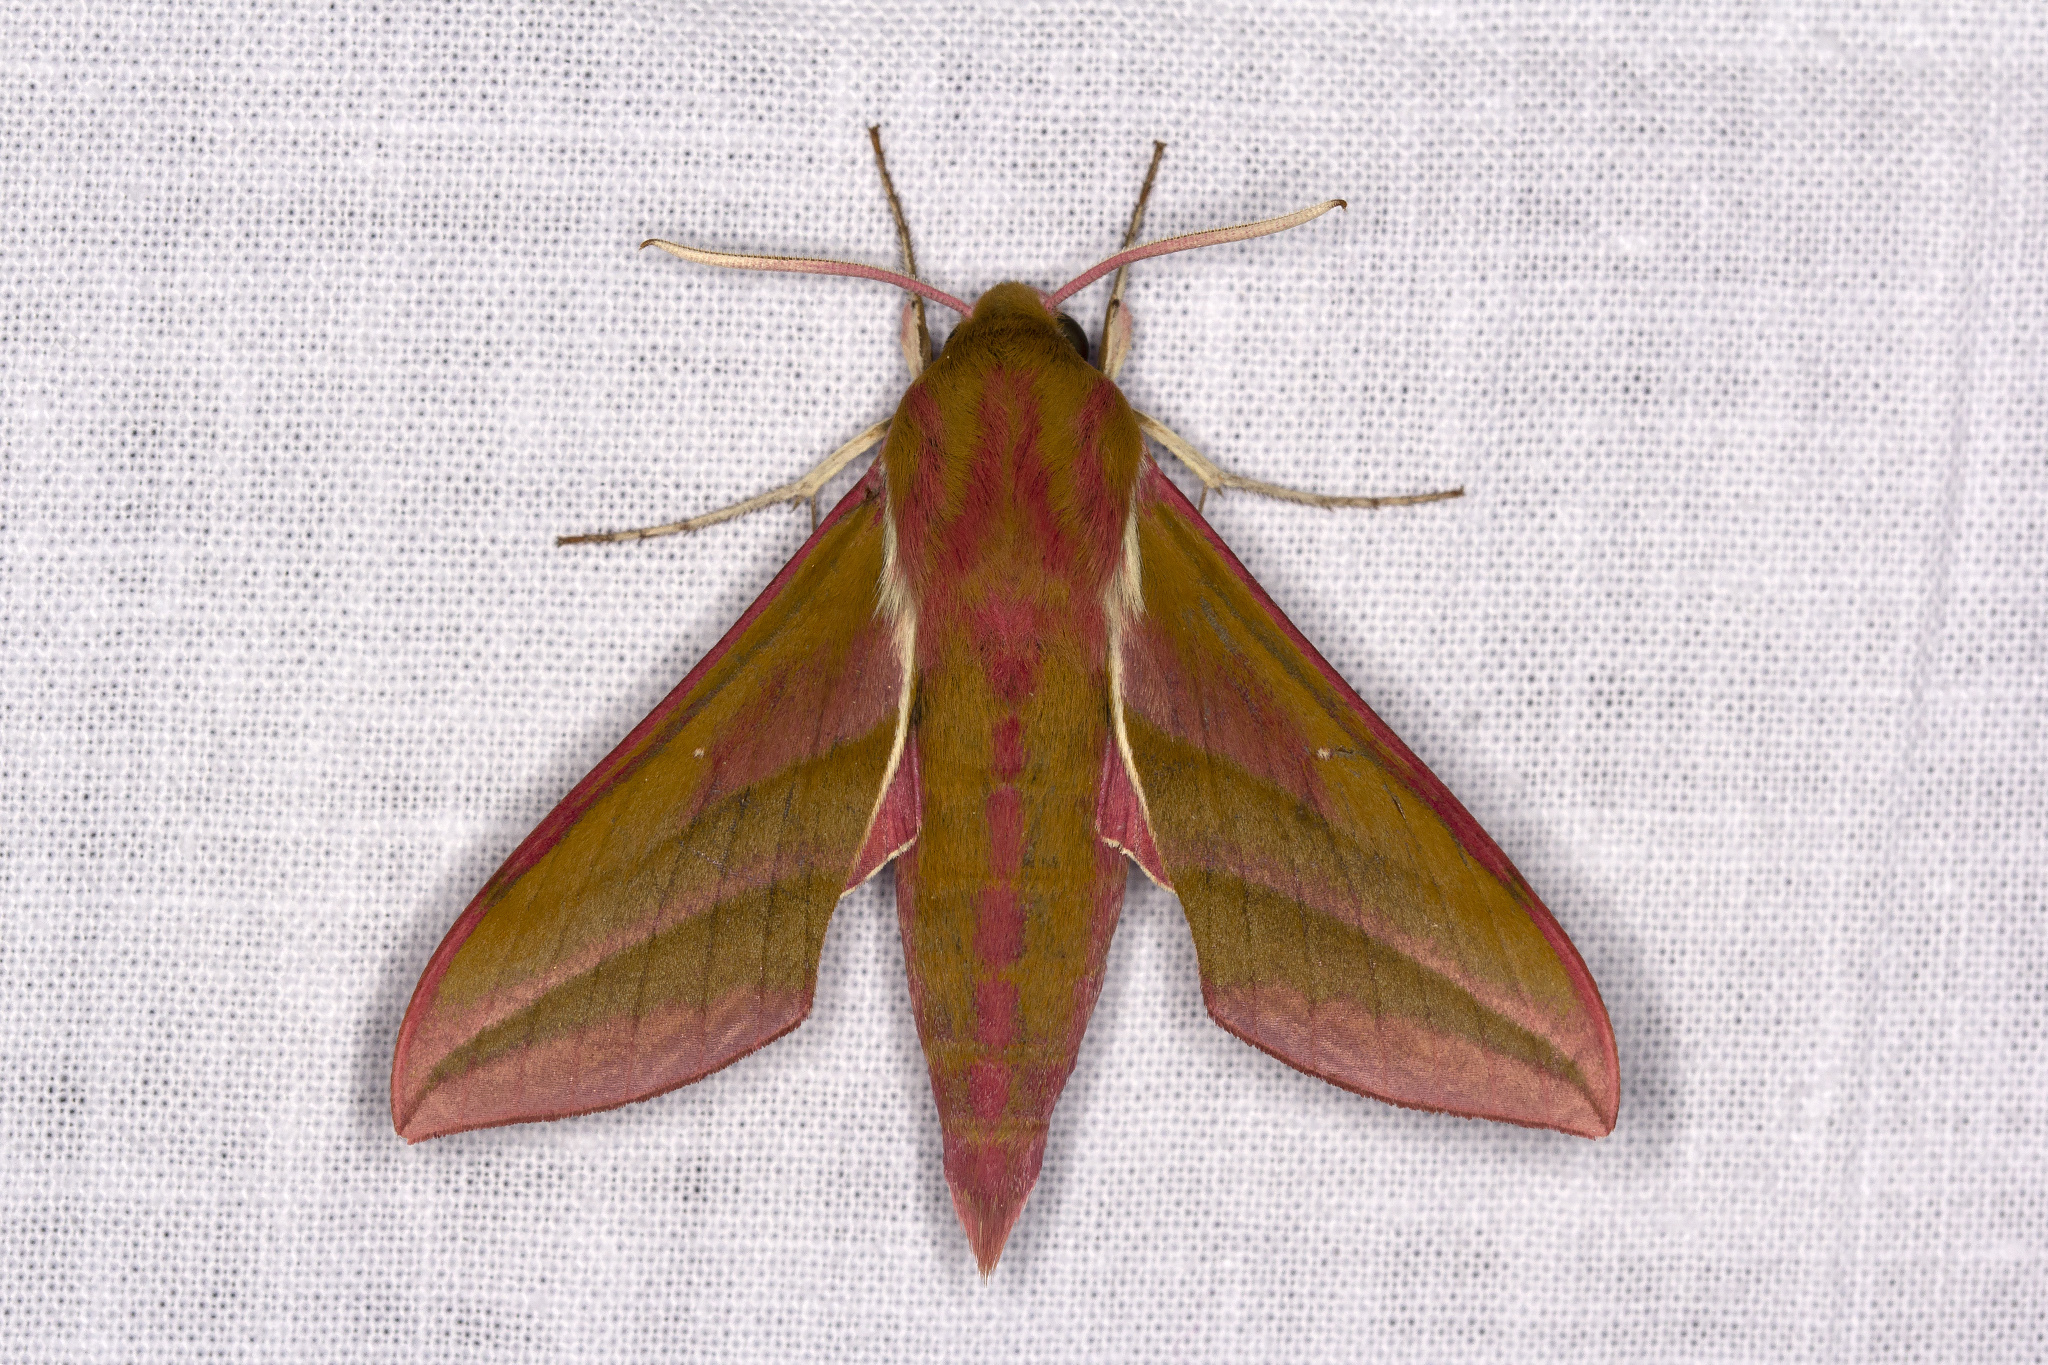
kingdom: Animalia
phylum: Arthropoda
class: Insecta
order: Lepidoptera
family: Sphingidae
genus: Deilephila
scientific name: Deilephila elpenor
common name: Elephant hawk-moth
